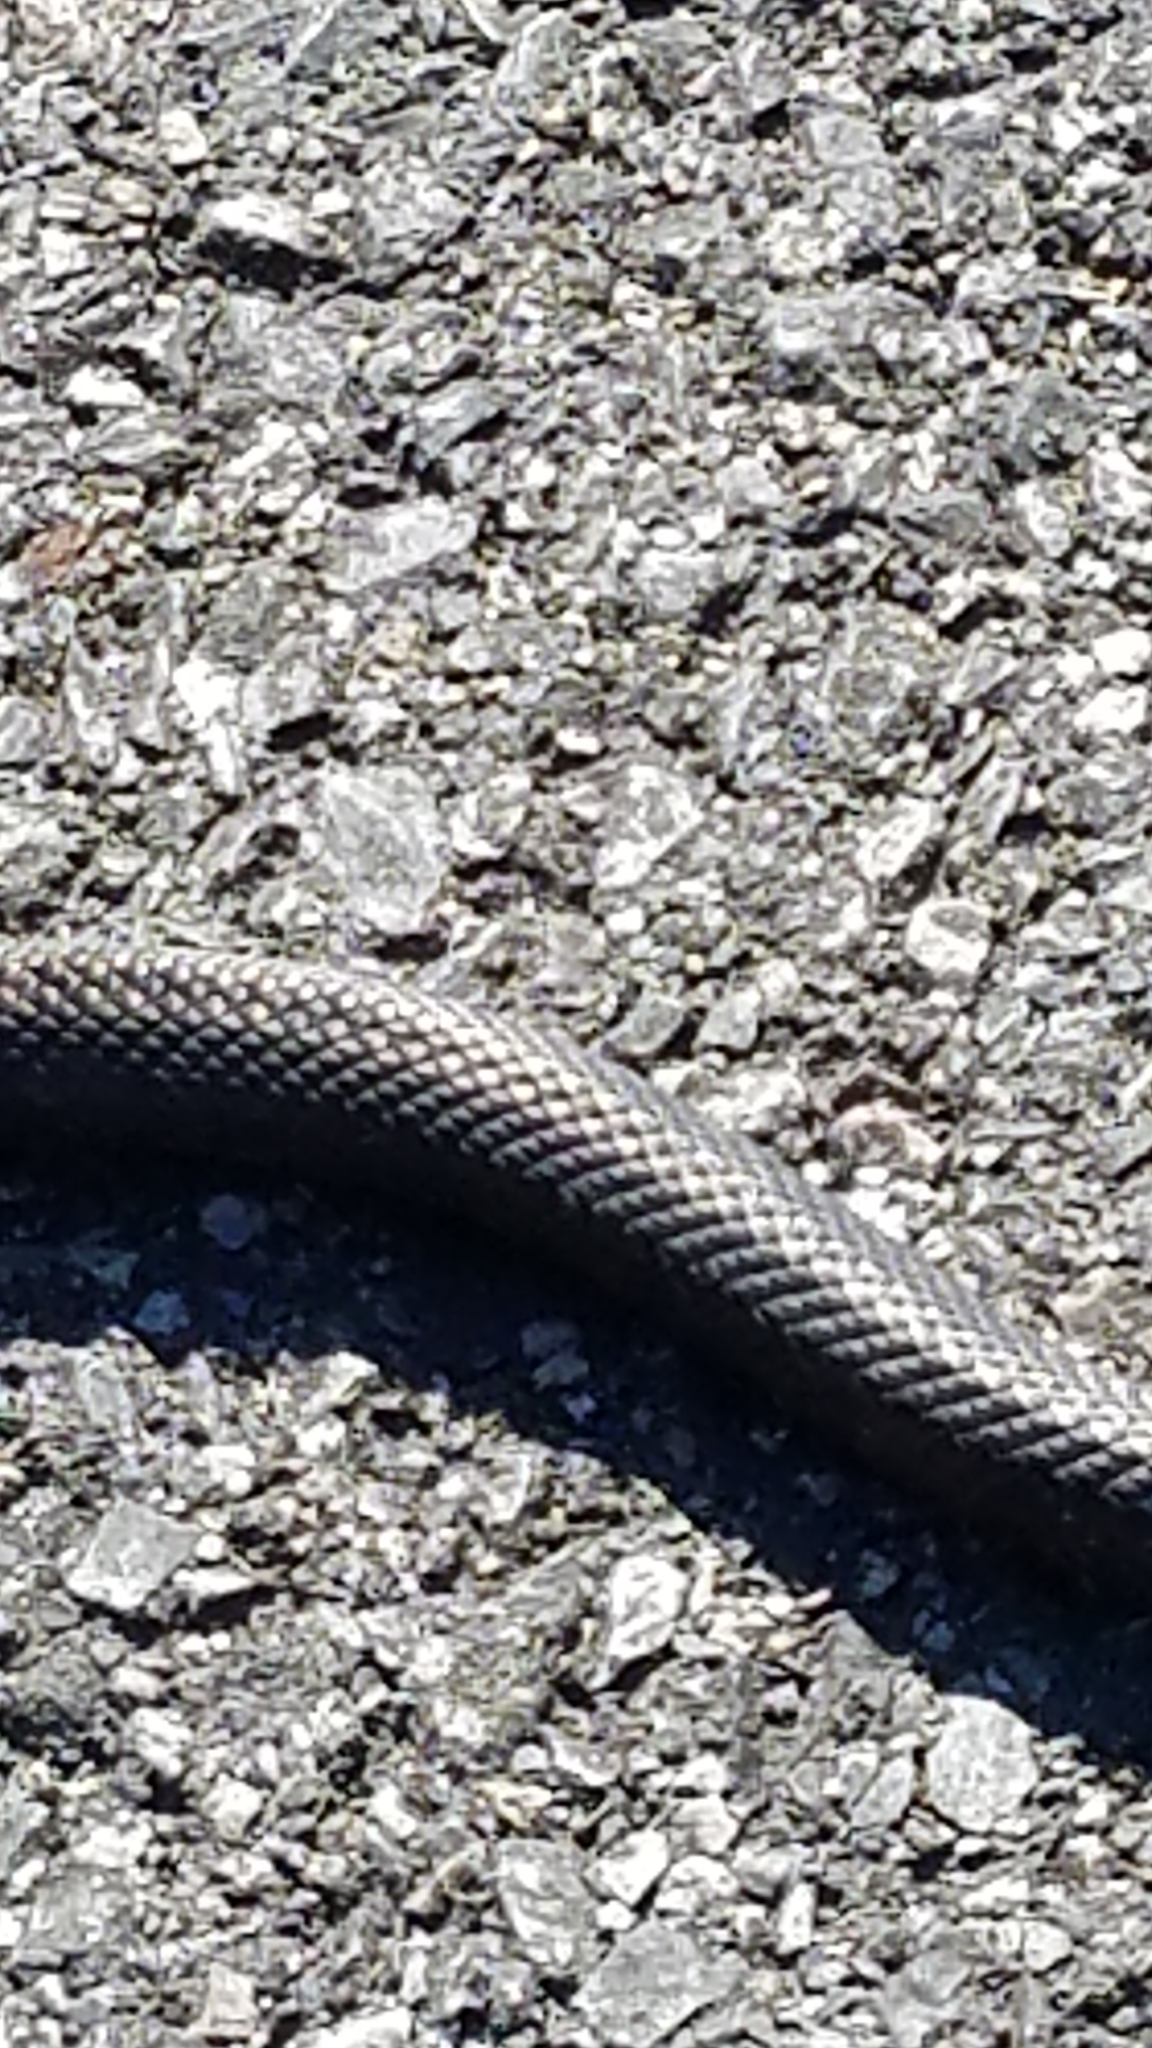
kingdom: Animalia
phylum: Chordata
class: Squamata
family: Colubridae
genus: Pantherophis
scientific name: Pantherophis alleghaniensis
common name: Eastern rat snake
